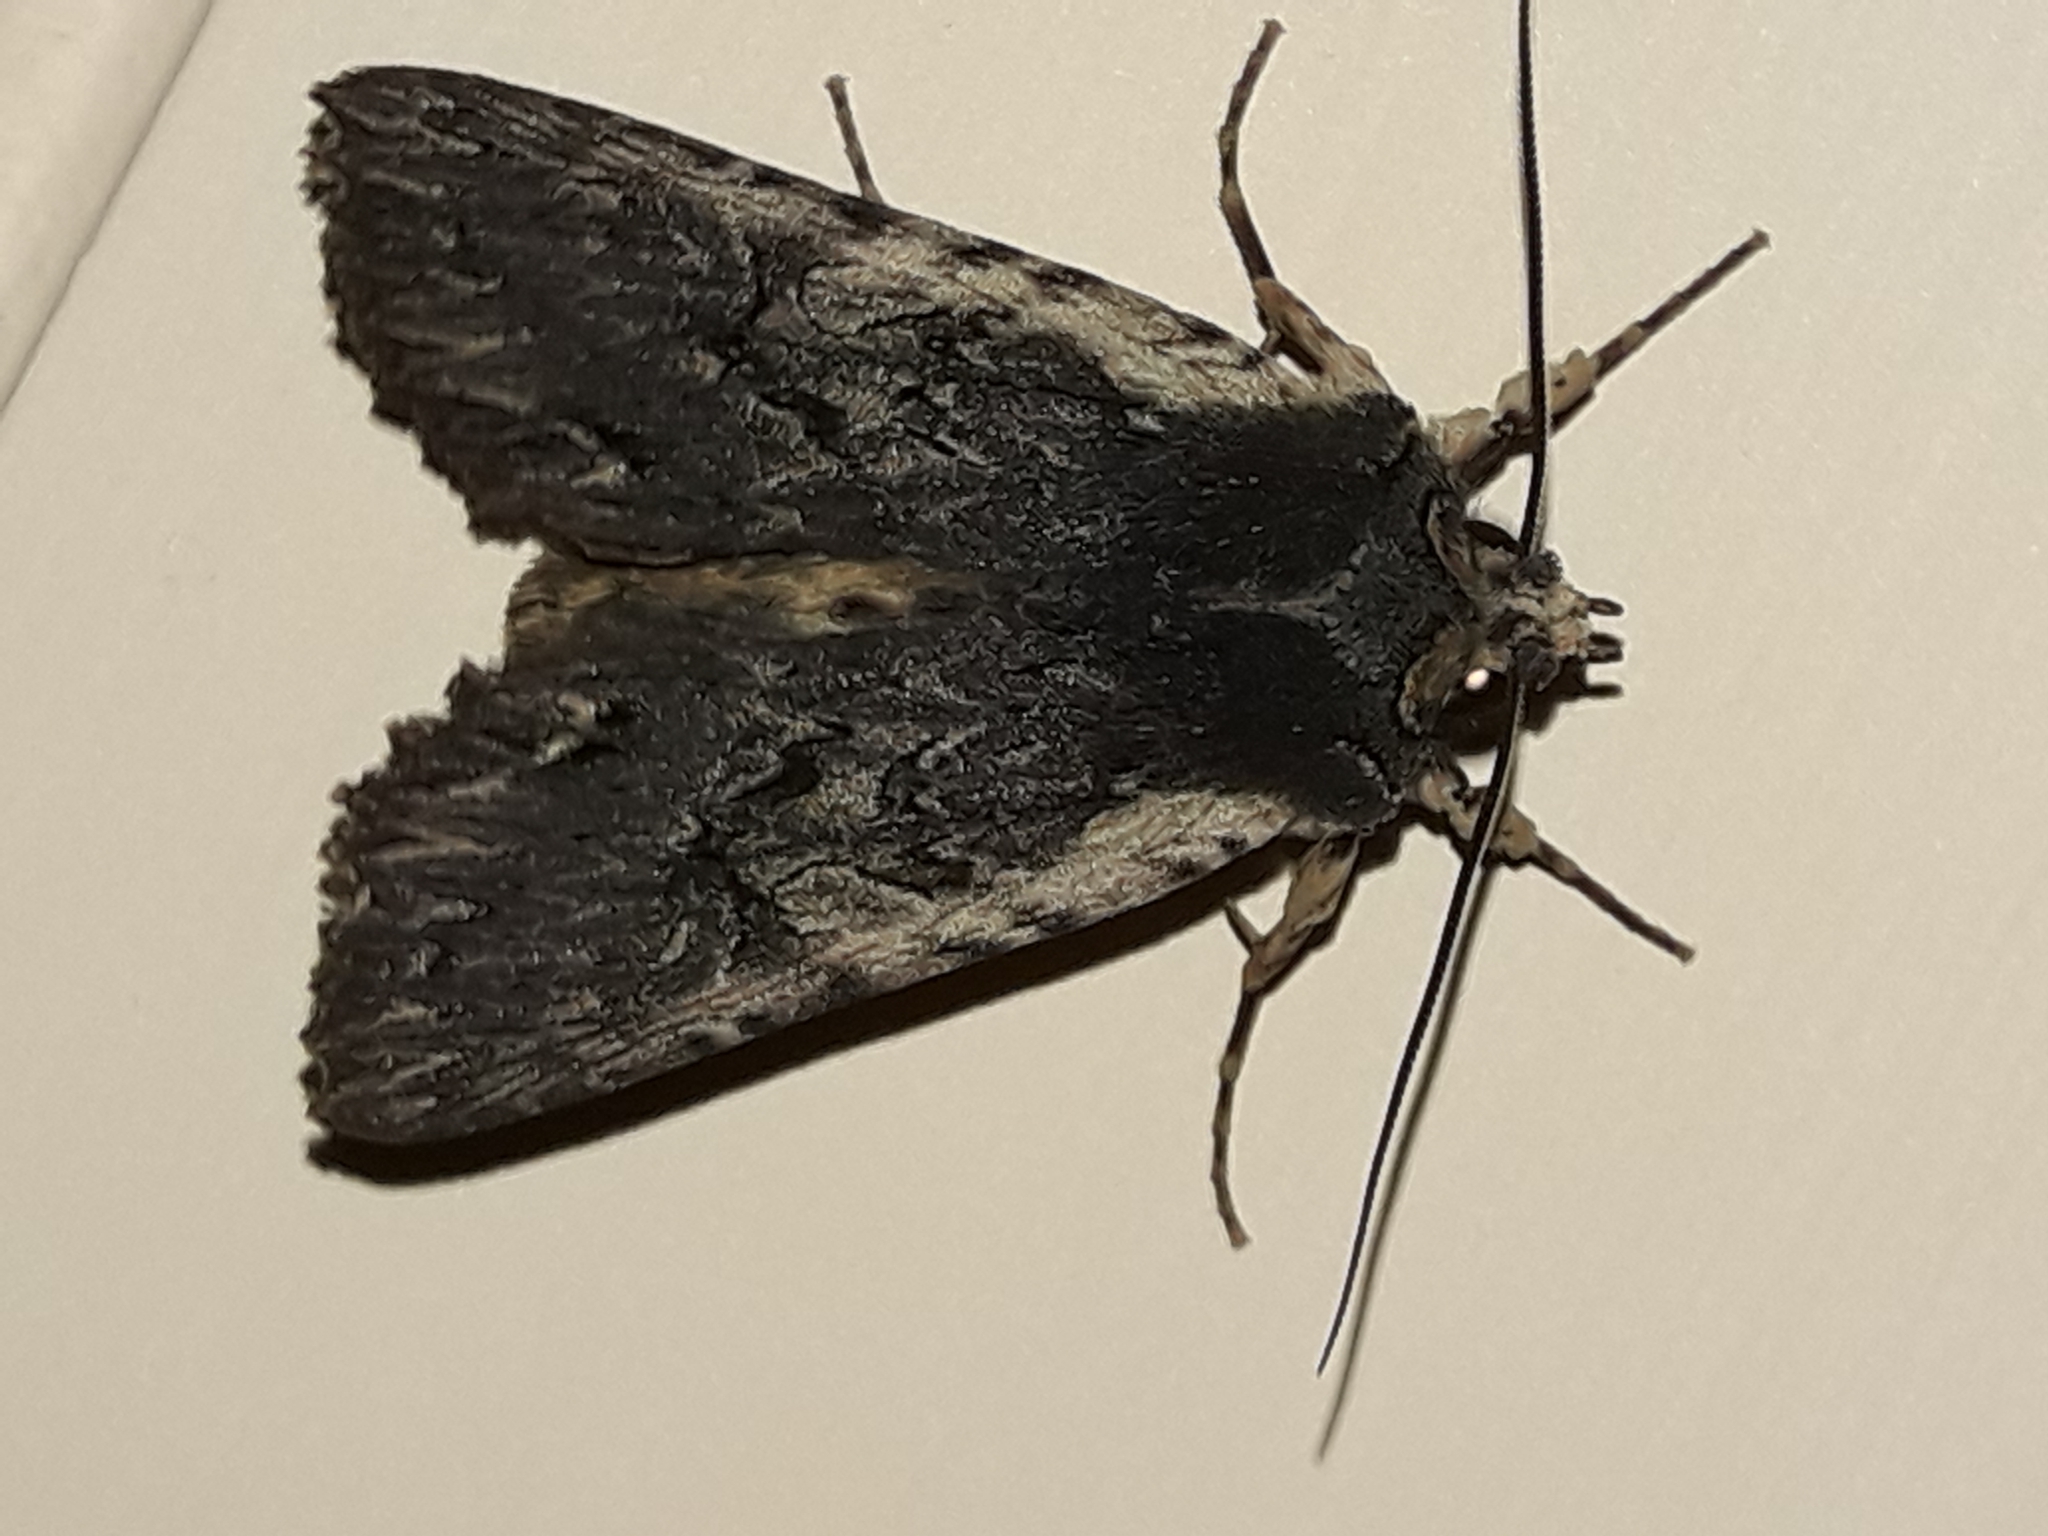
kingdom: Animalia
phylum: Arthropoda
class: Insecta
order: Lepidoptera
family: Noctuidae
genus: Meterana
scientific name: Meterana alcyone
